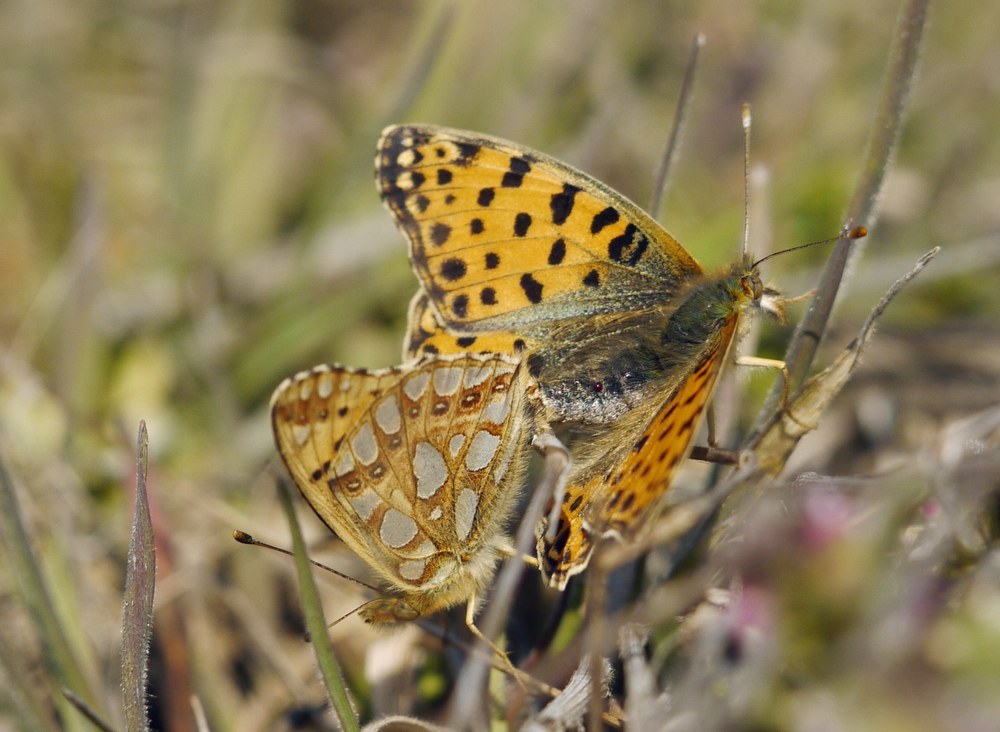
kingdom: Animalia
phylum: Arthropoda
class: Insecta
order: Lepidoptera
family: Nymphalidae
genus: Issoria
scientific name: Issoria lathonia
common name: Queen of spain fritillary
